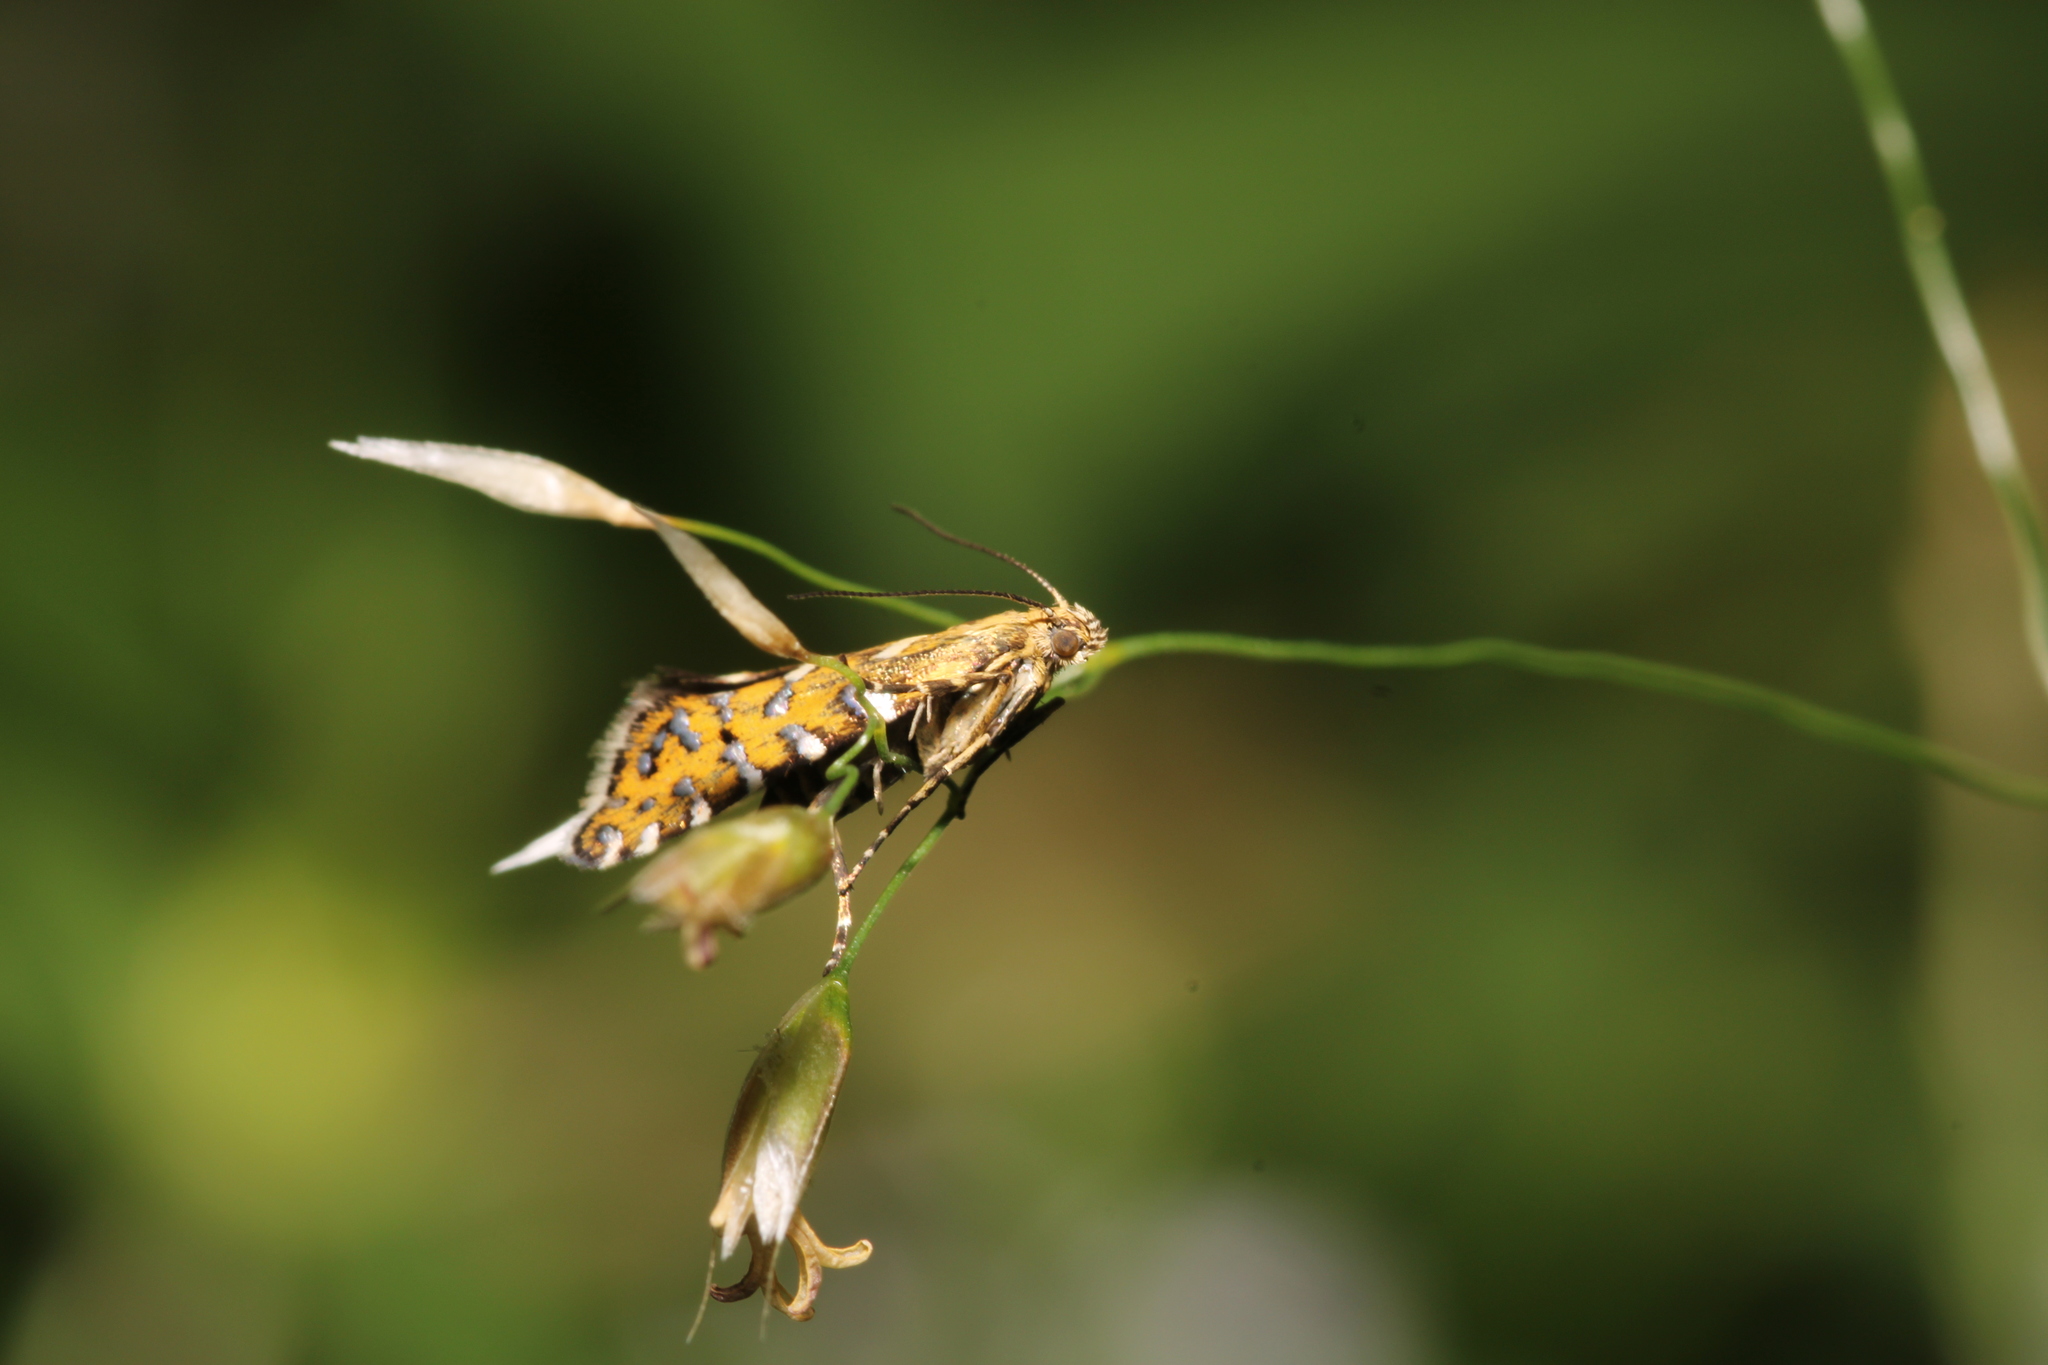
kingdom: Animalia
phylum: Arthropoda
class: Insecta
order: Lepidoptera
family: Glyphipterigidae
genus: Glyphipterix
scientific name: Glyphipterix bergstraesserella
